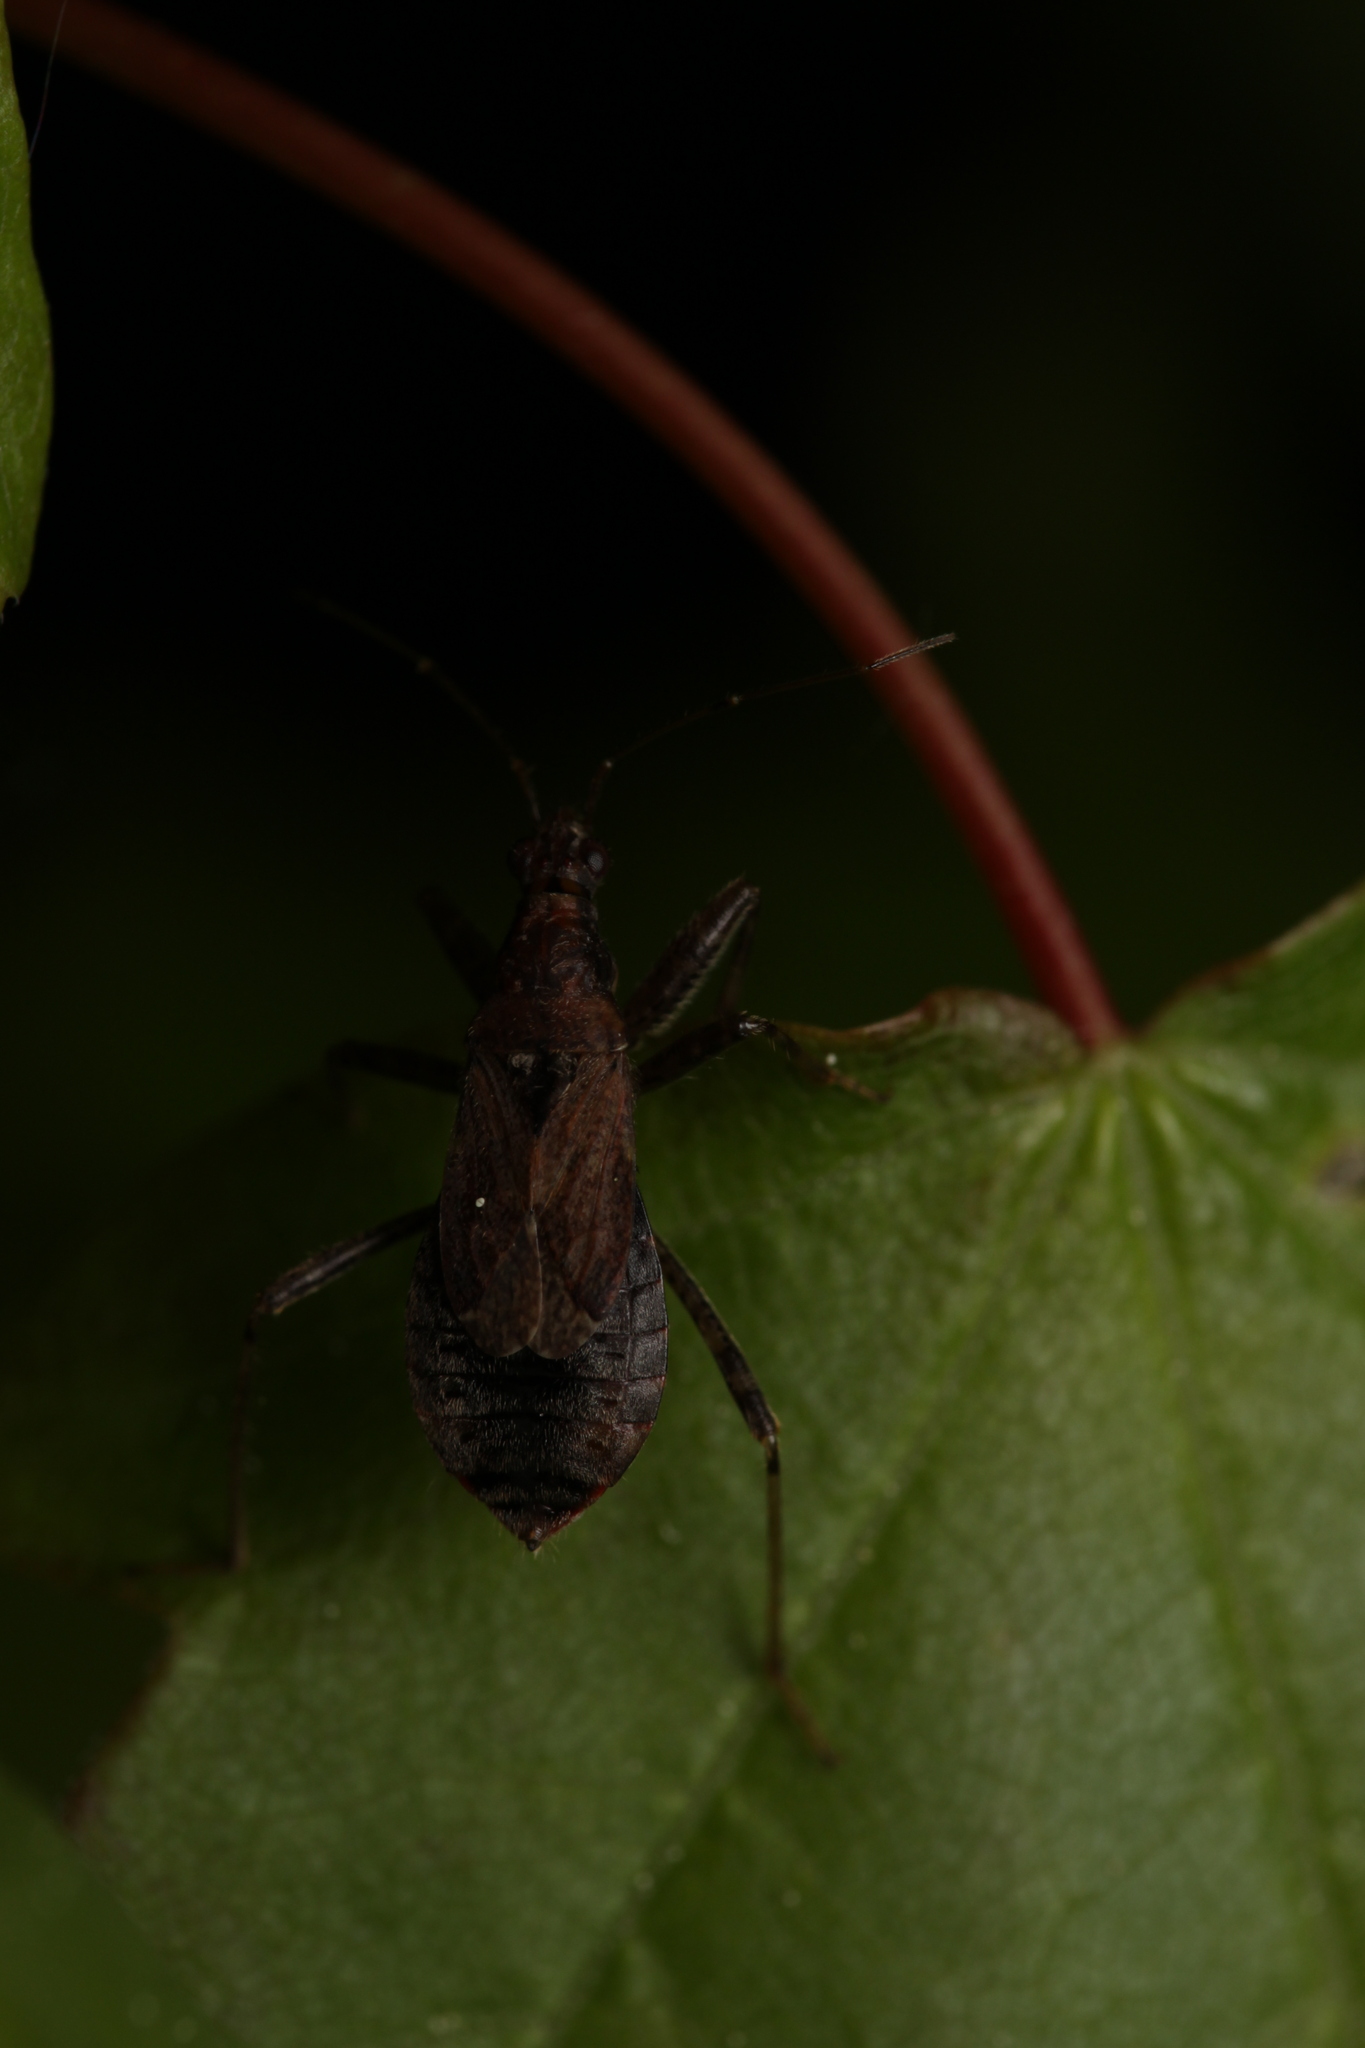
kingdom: Animalia
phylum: Arthropoda
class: Insecta
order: Hemiptera
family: Nabidae
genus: Himacerus
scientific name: Himacerus mirmicoides
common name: Ant damsel bug
